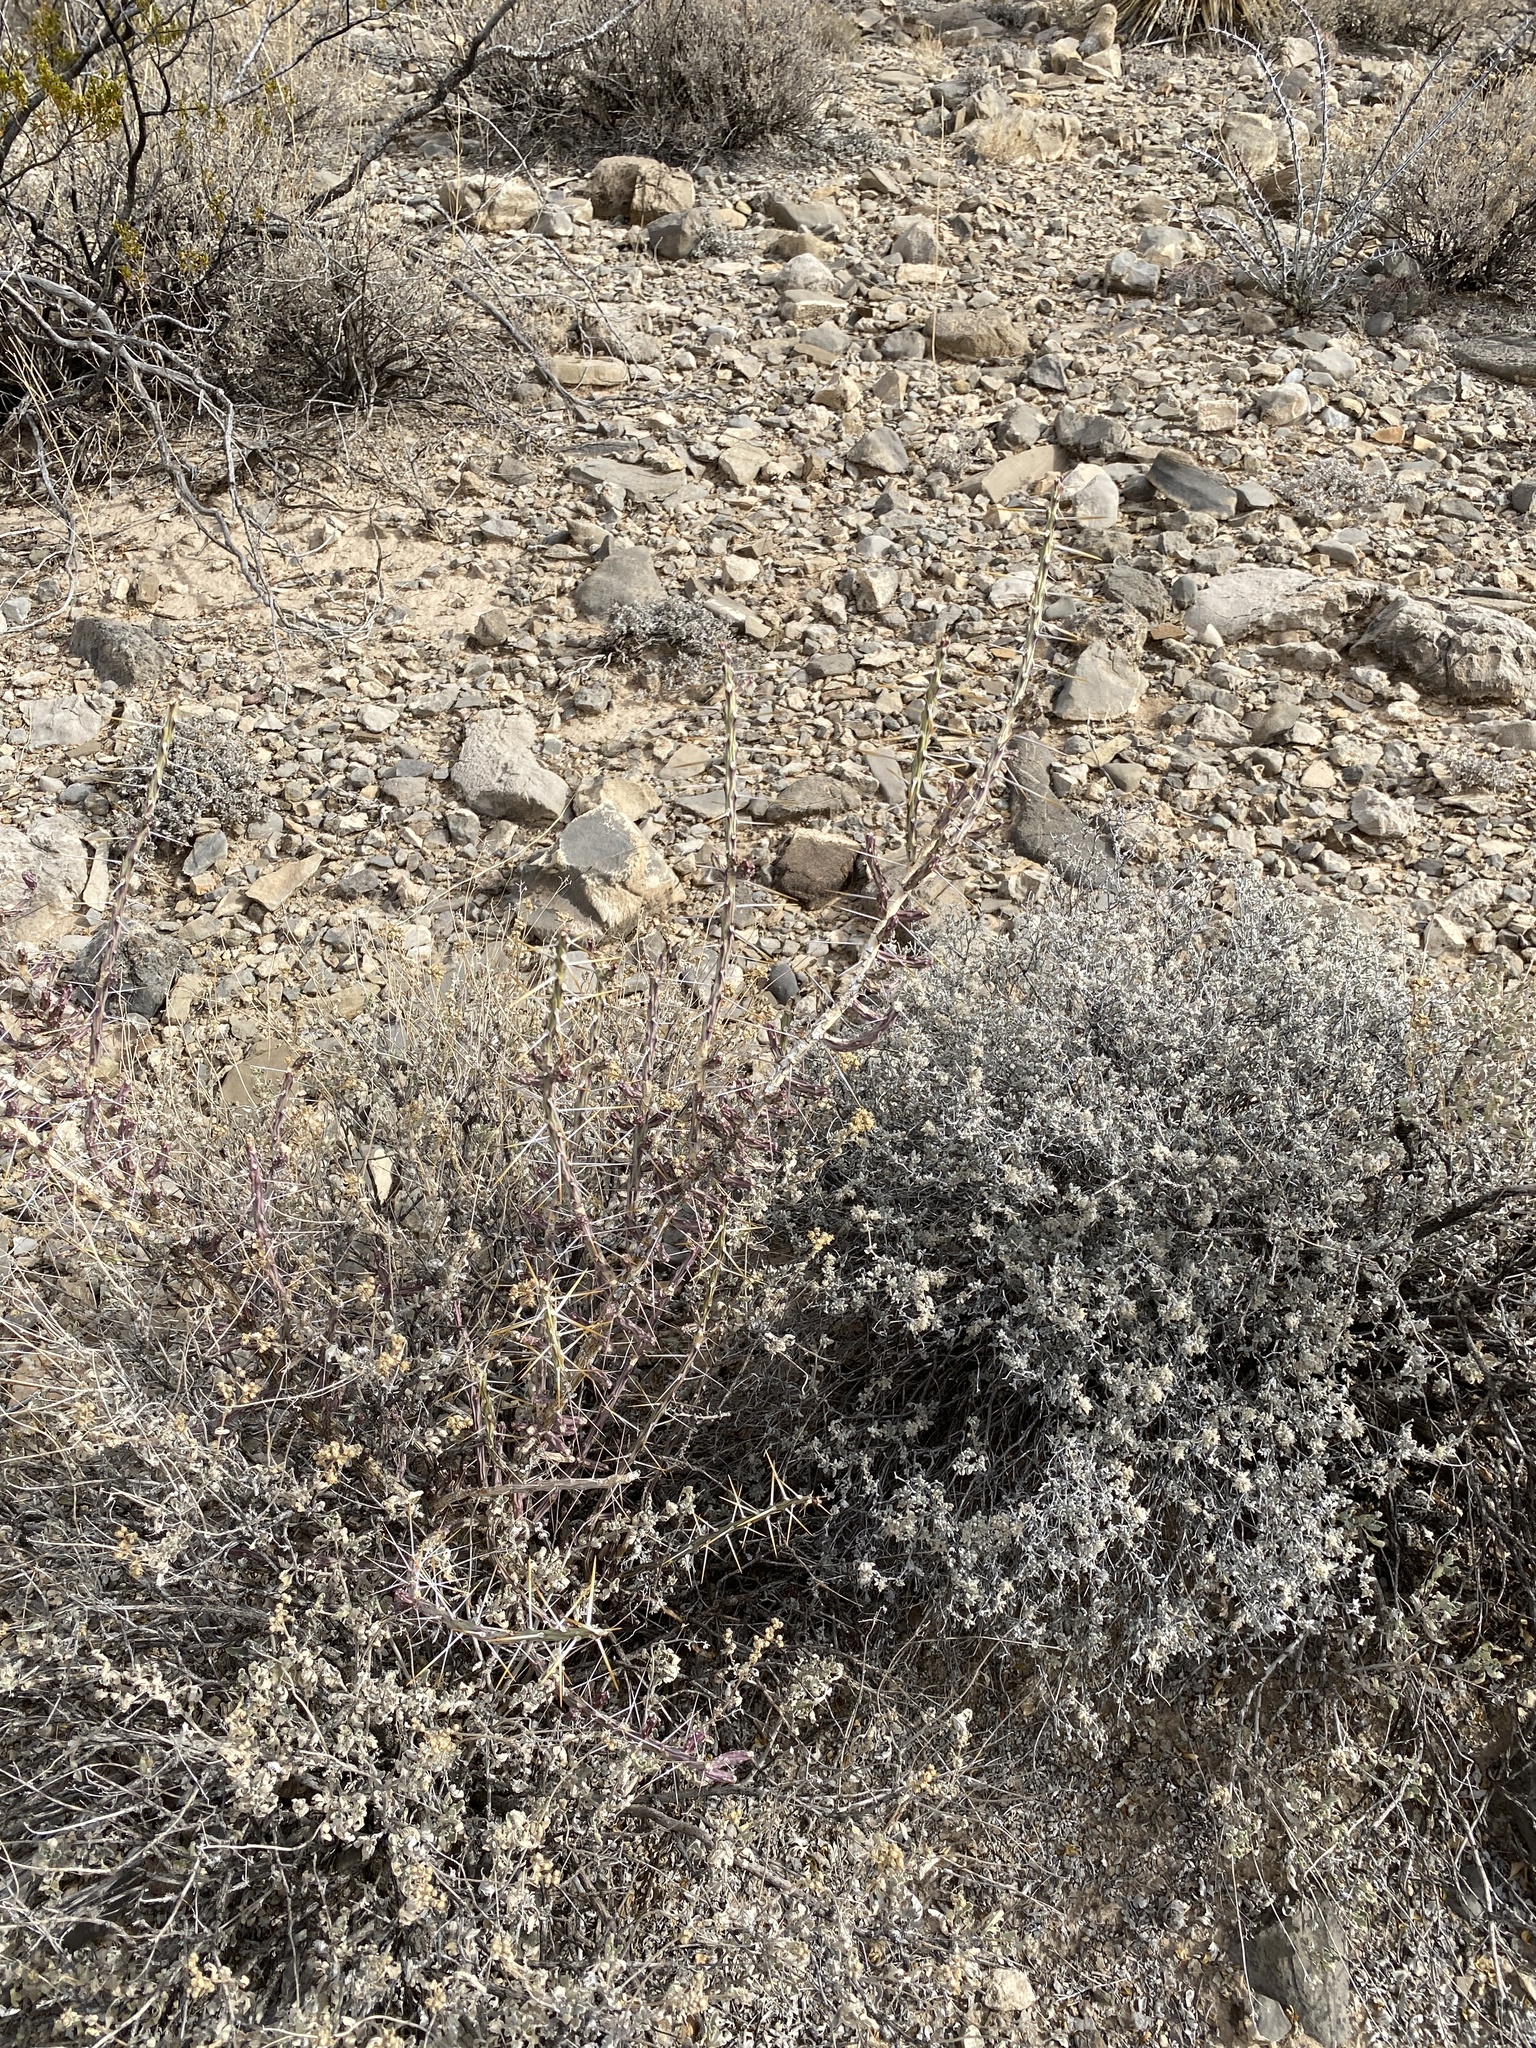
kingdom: Plantae
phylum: Tracheophyta
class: Magnoliopsida
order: Caryophyllales
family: Cactaceae
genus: Cylindropuntia
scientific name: Cylindropuntia leptocaulis
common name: Christmas cactus
